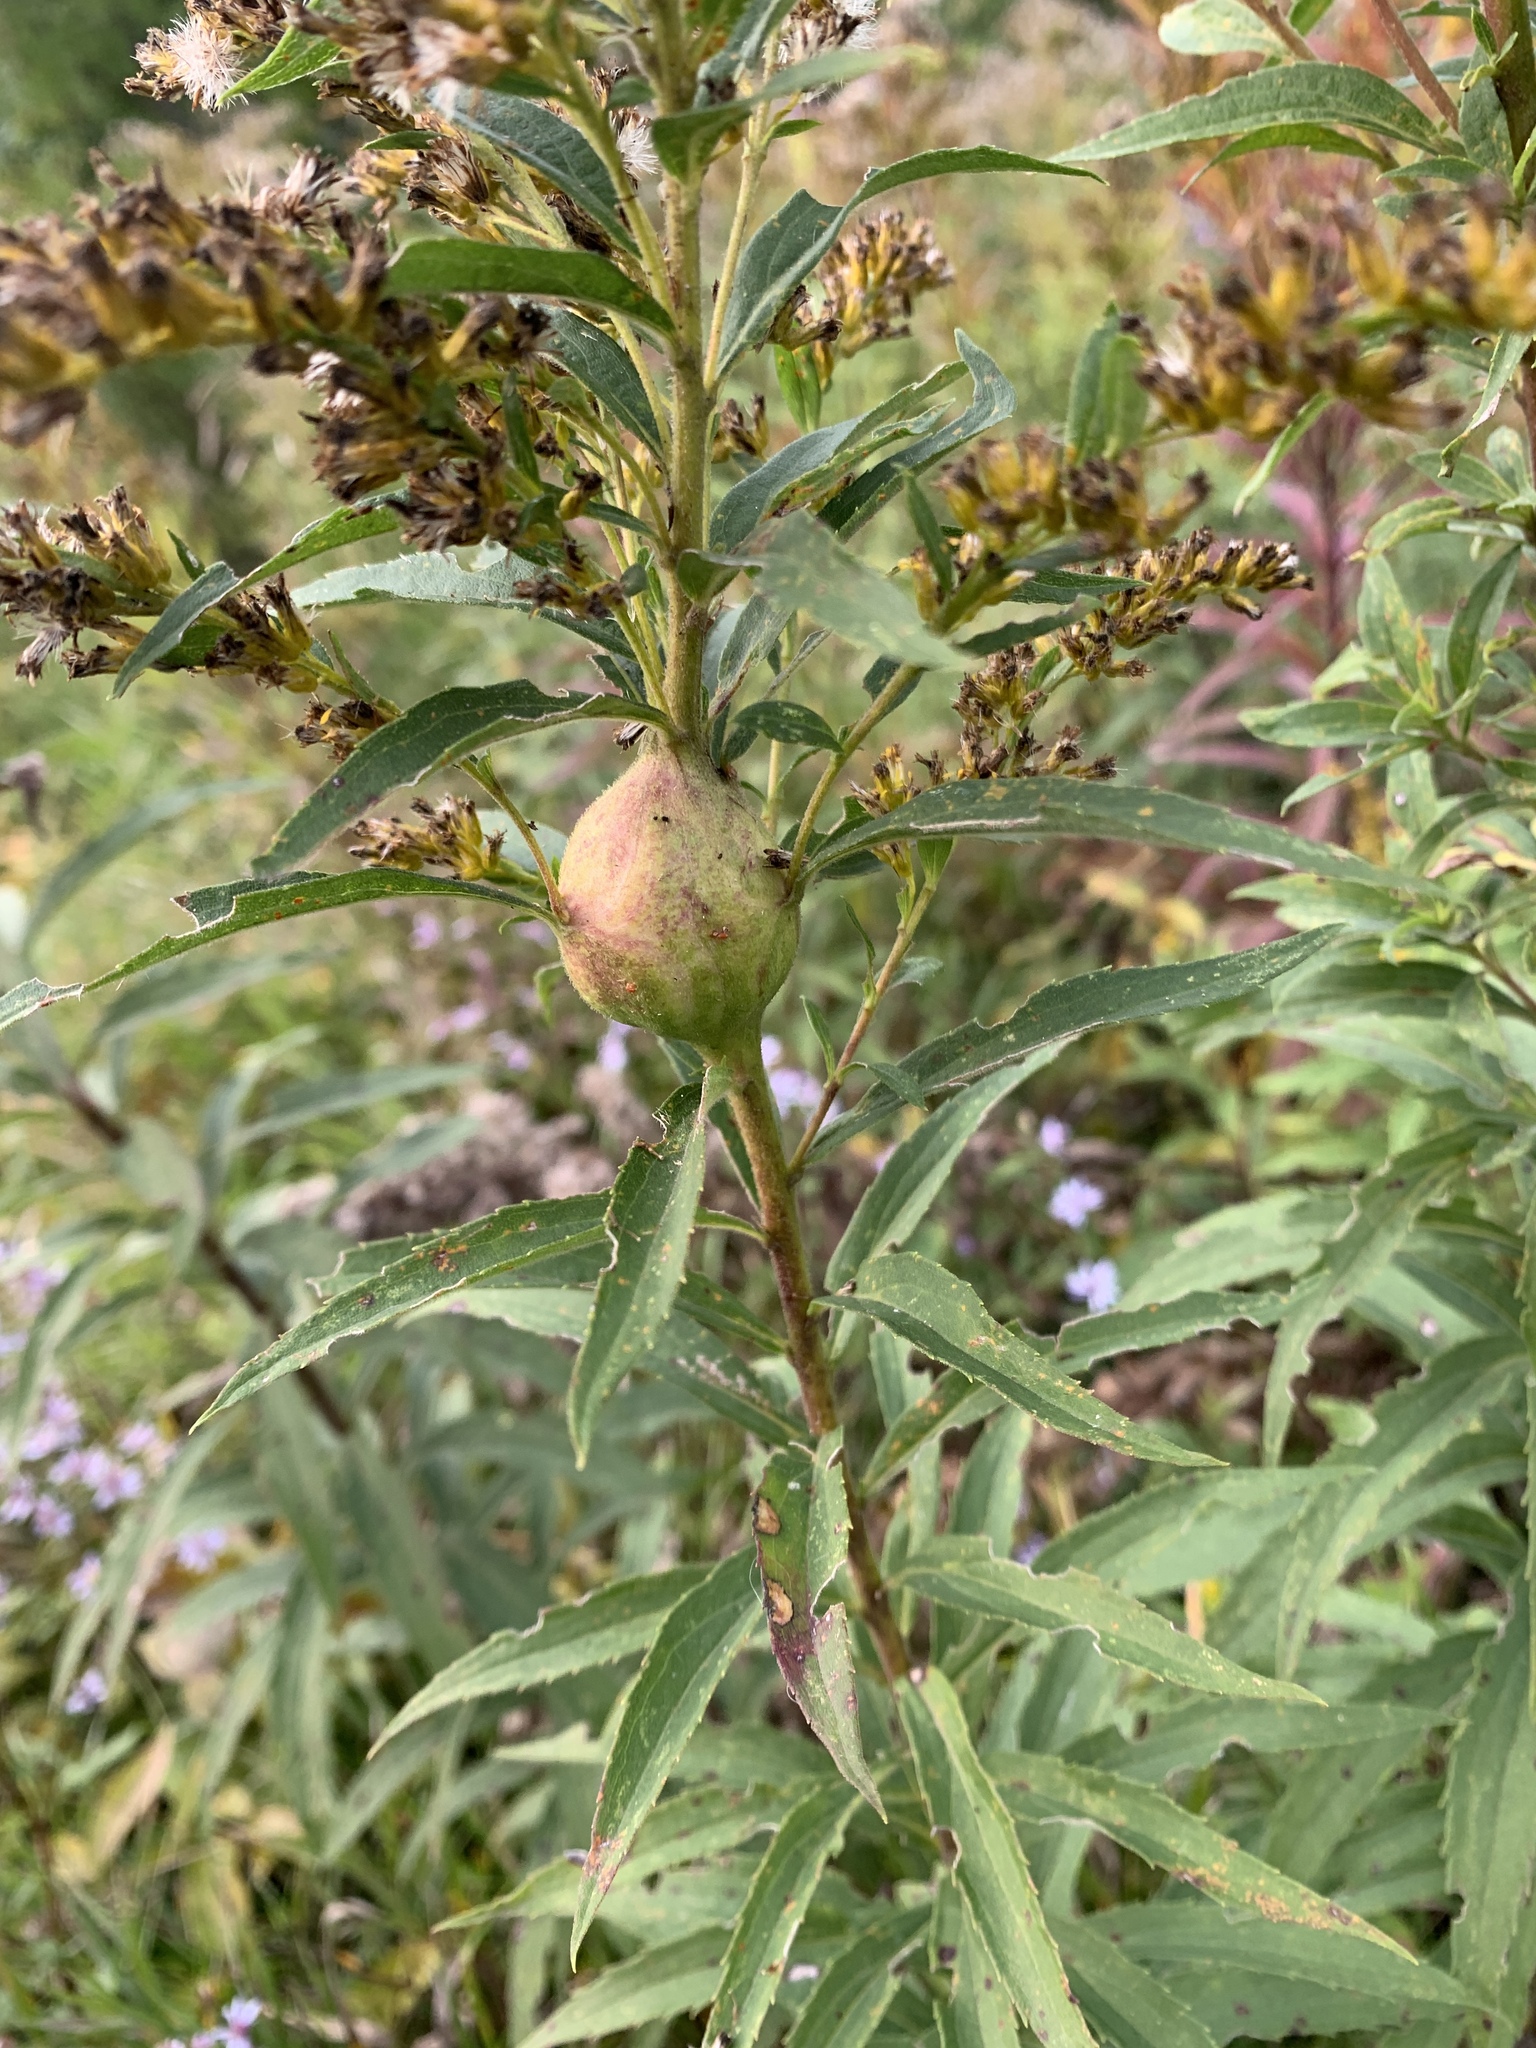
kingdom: Animalia
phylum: Arthropoda
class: Insecta
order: Diptera
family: Tephritidae
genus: Eurosta
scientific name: Eurosta solidaginis
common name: Goldenrod gall fly
